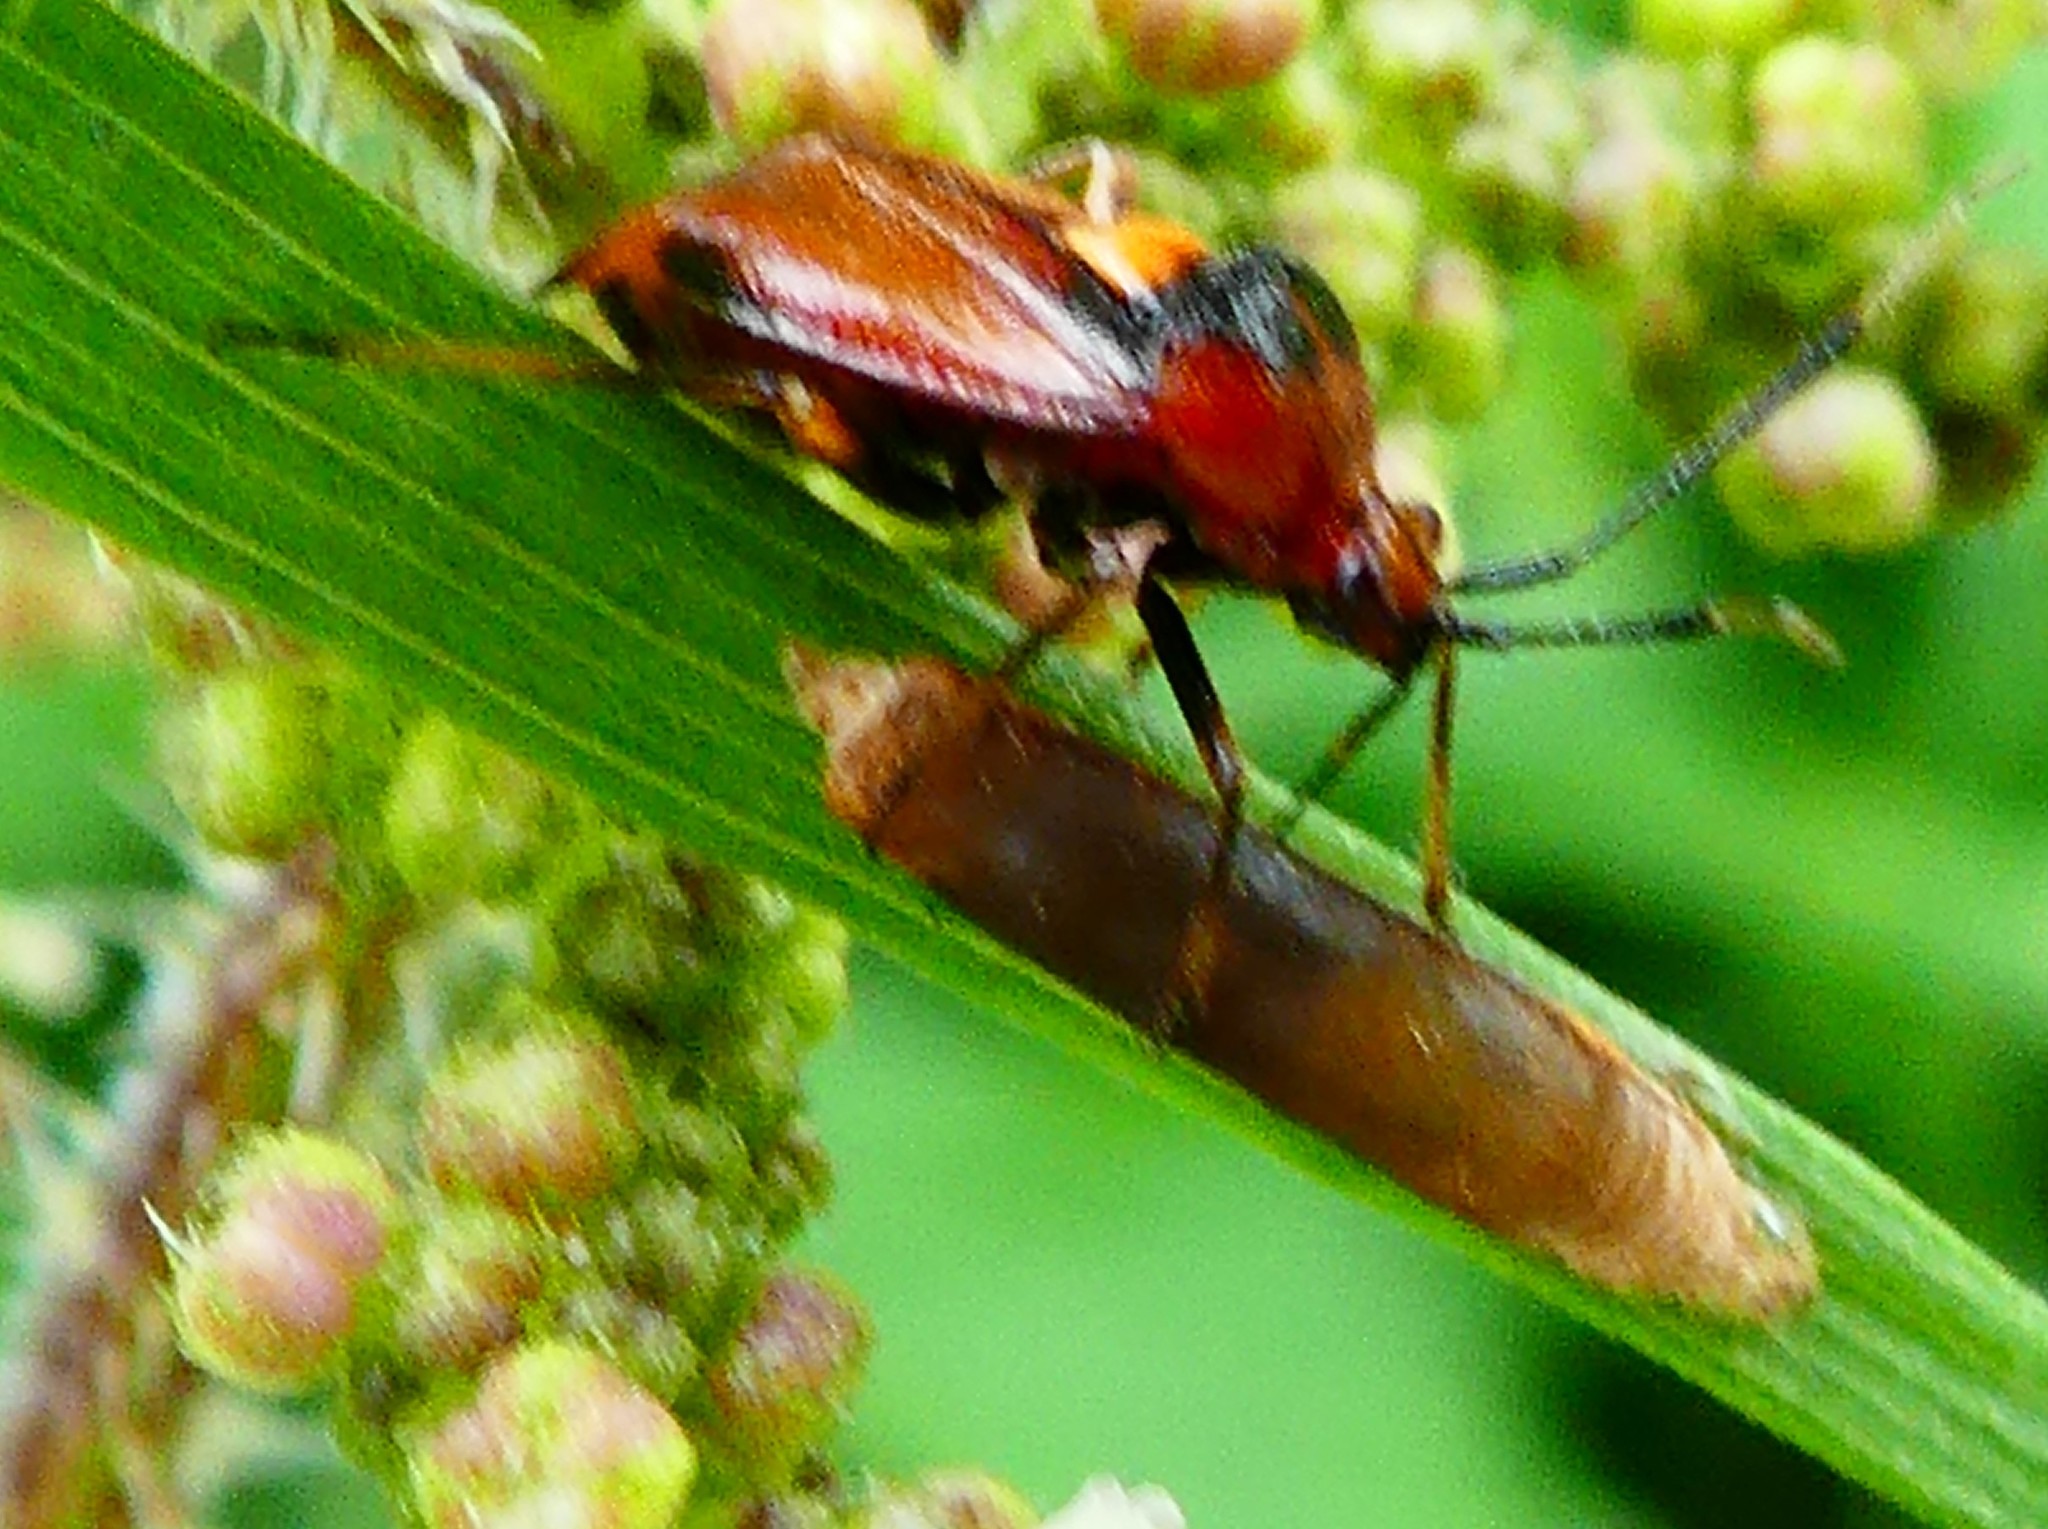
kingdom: Animalia
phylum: Arthropoda
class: Insecta
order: Hemiptera
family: Miridae
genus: Deraeocoris
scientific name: Deraeocoris ruber
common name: Plant bug
